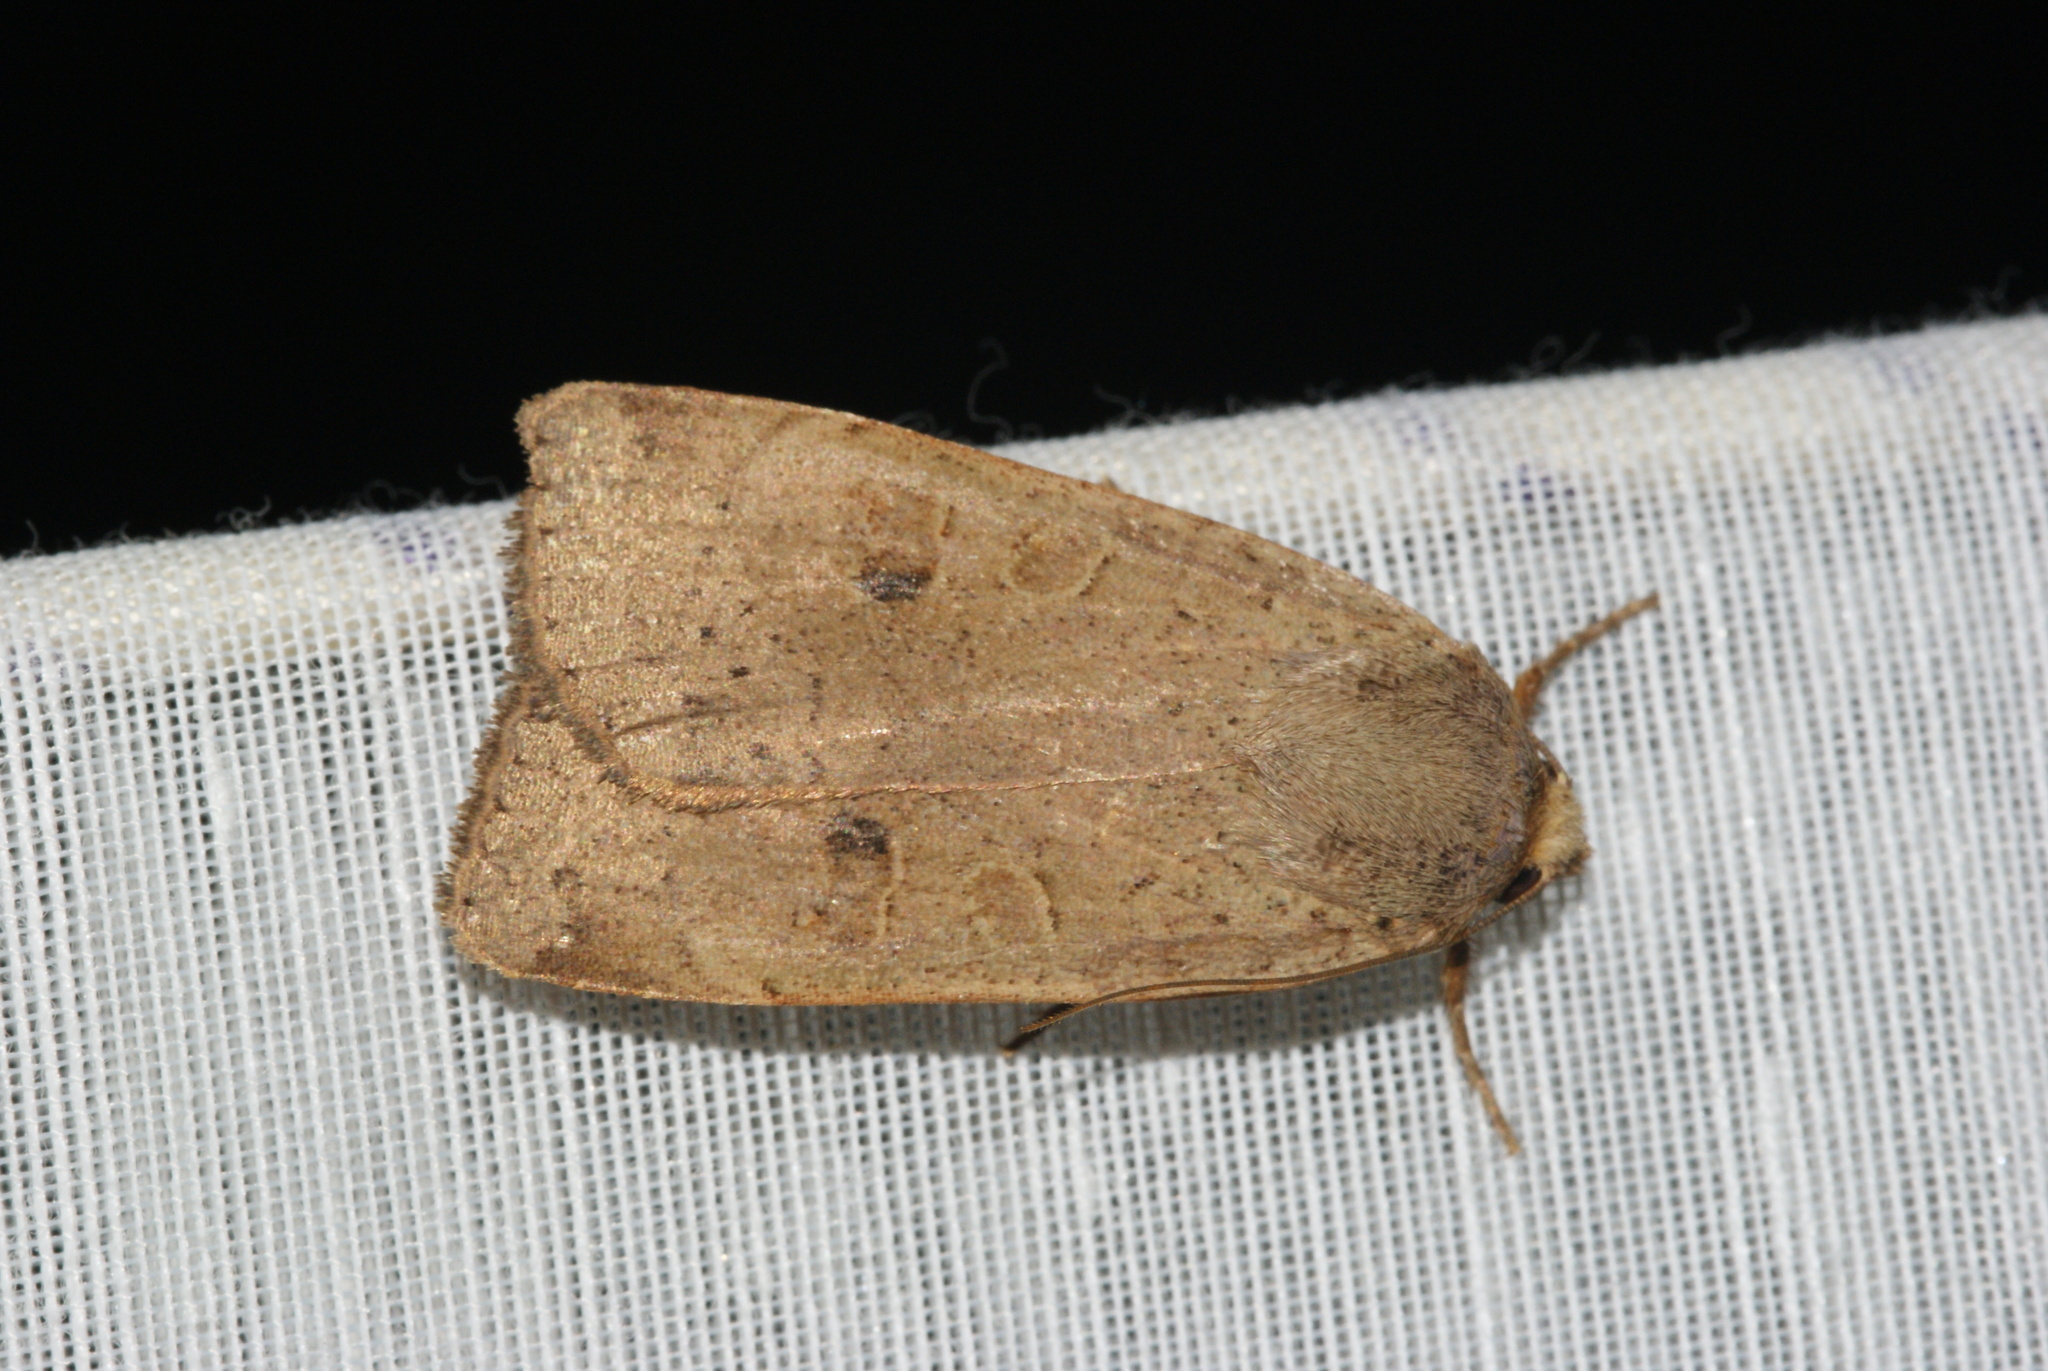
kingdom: Animalia
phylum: Arthropoda
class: Insecta
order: Lepidoptera
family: Noctuidae
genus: Noctua
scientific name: Noctua comes
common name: Lesser yellow underwing
